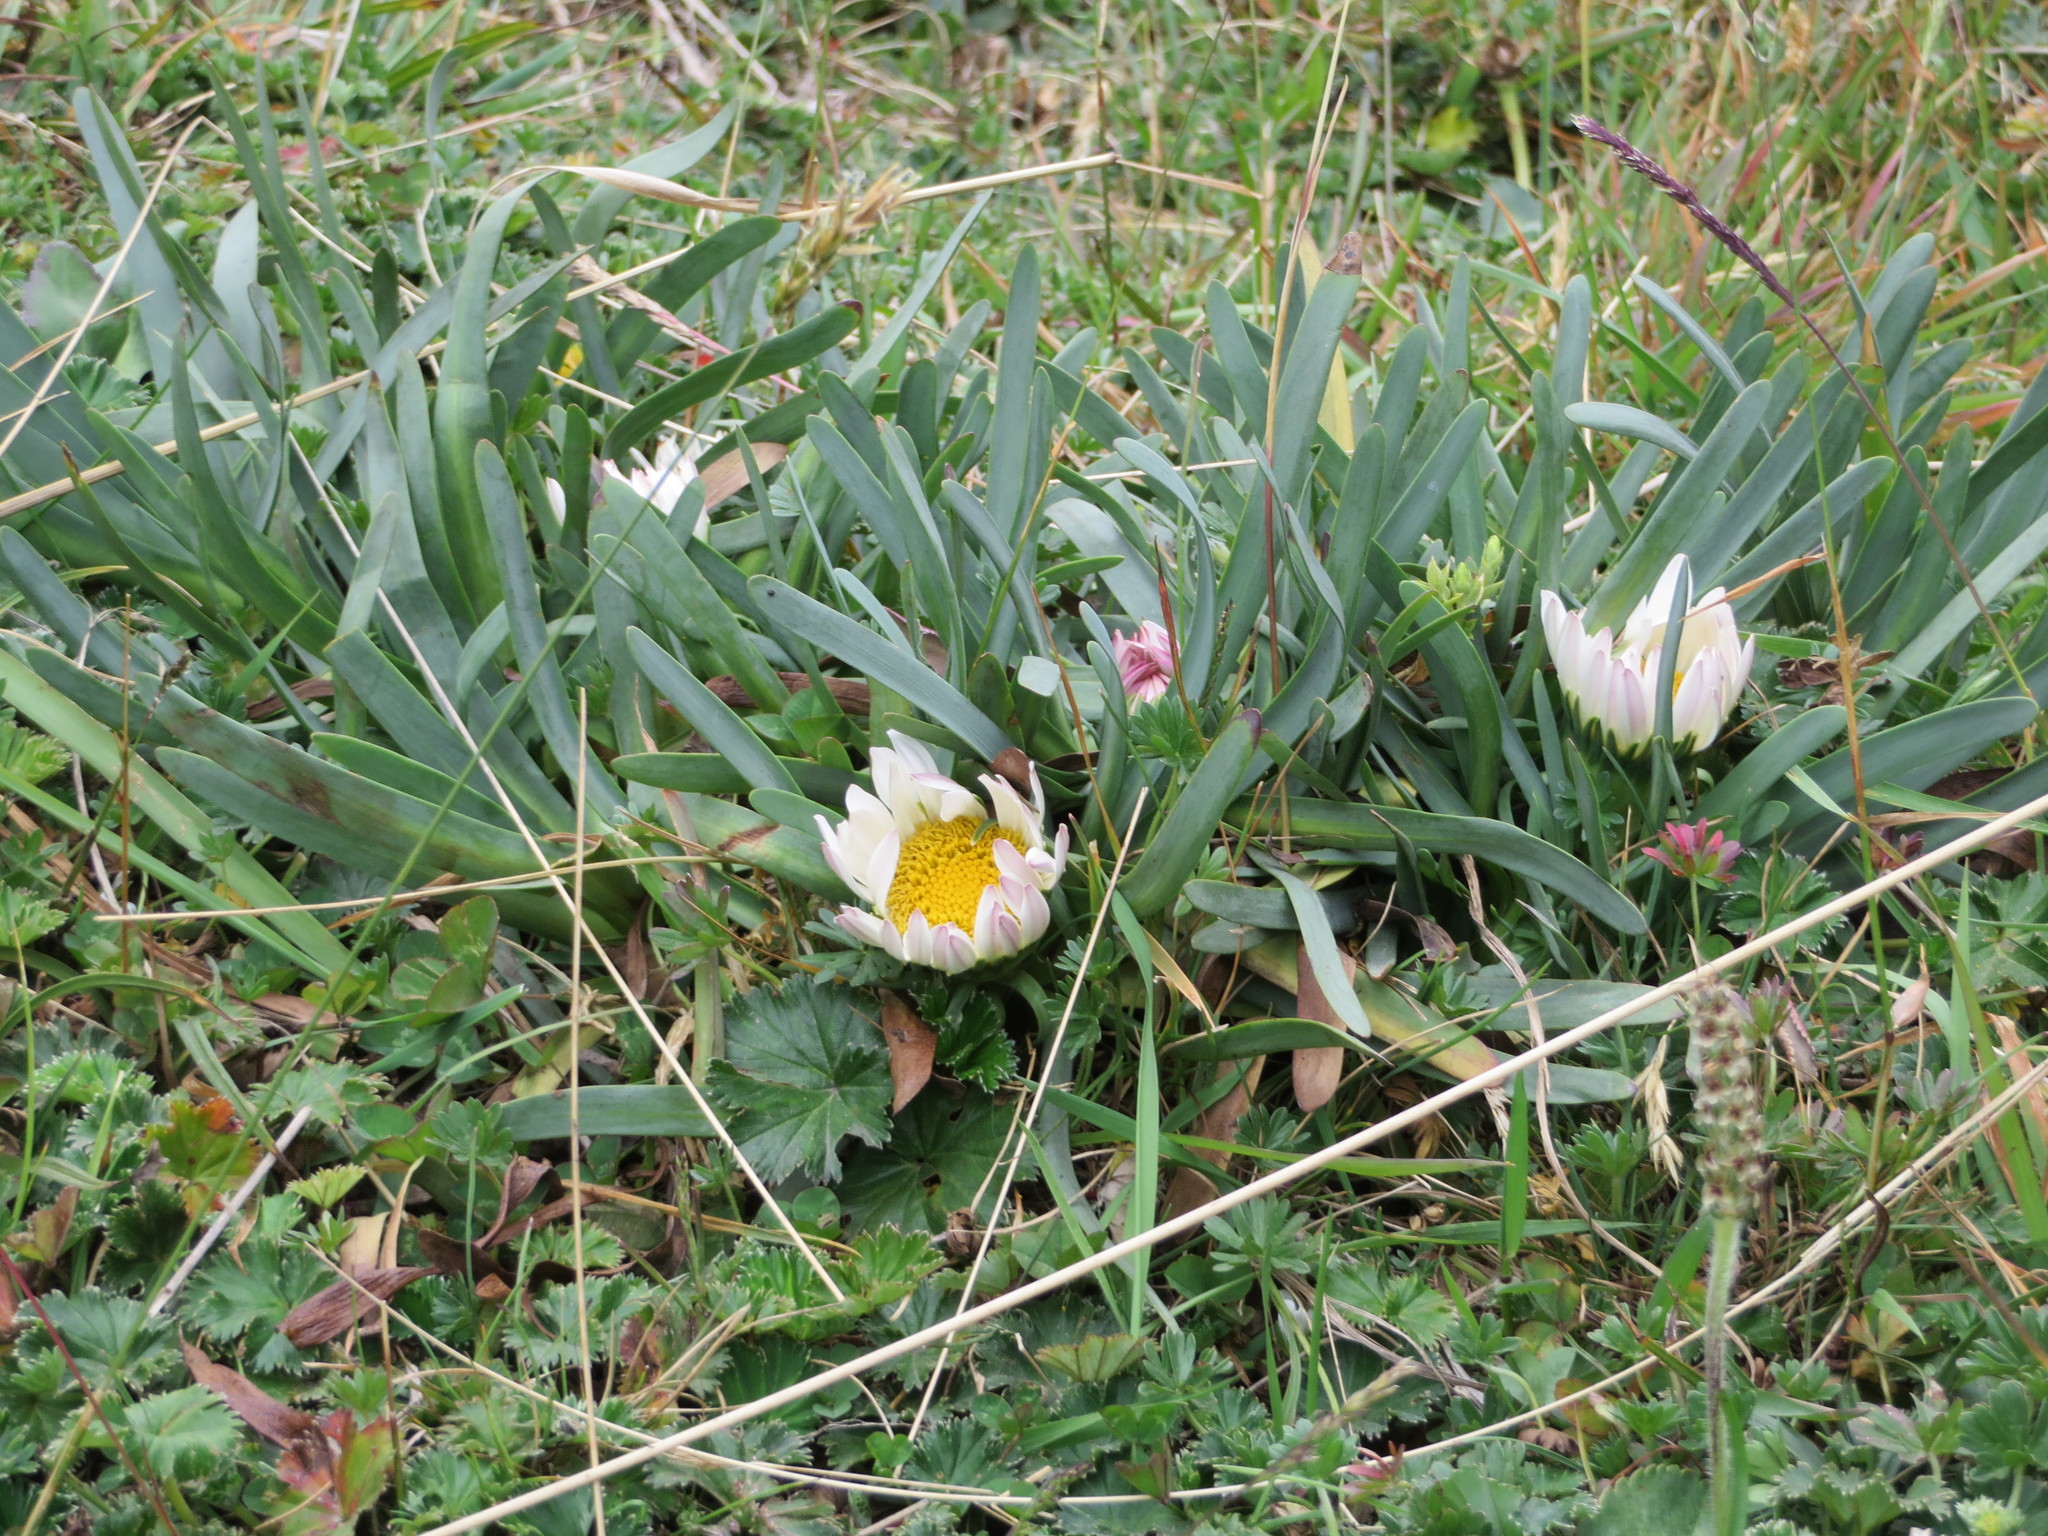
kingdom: Plantae
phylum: Tracheophyta
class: Magnoliopsida
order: Asterales
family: Asteraceae
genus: Rockhausenia
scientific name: Rockhausenia nubigena
